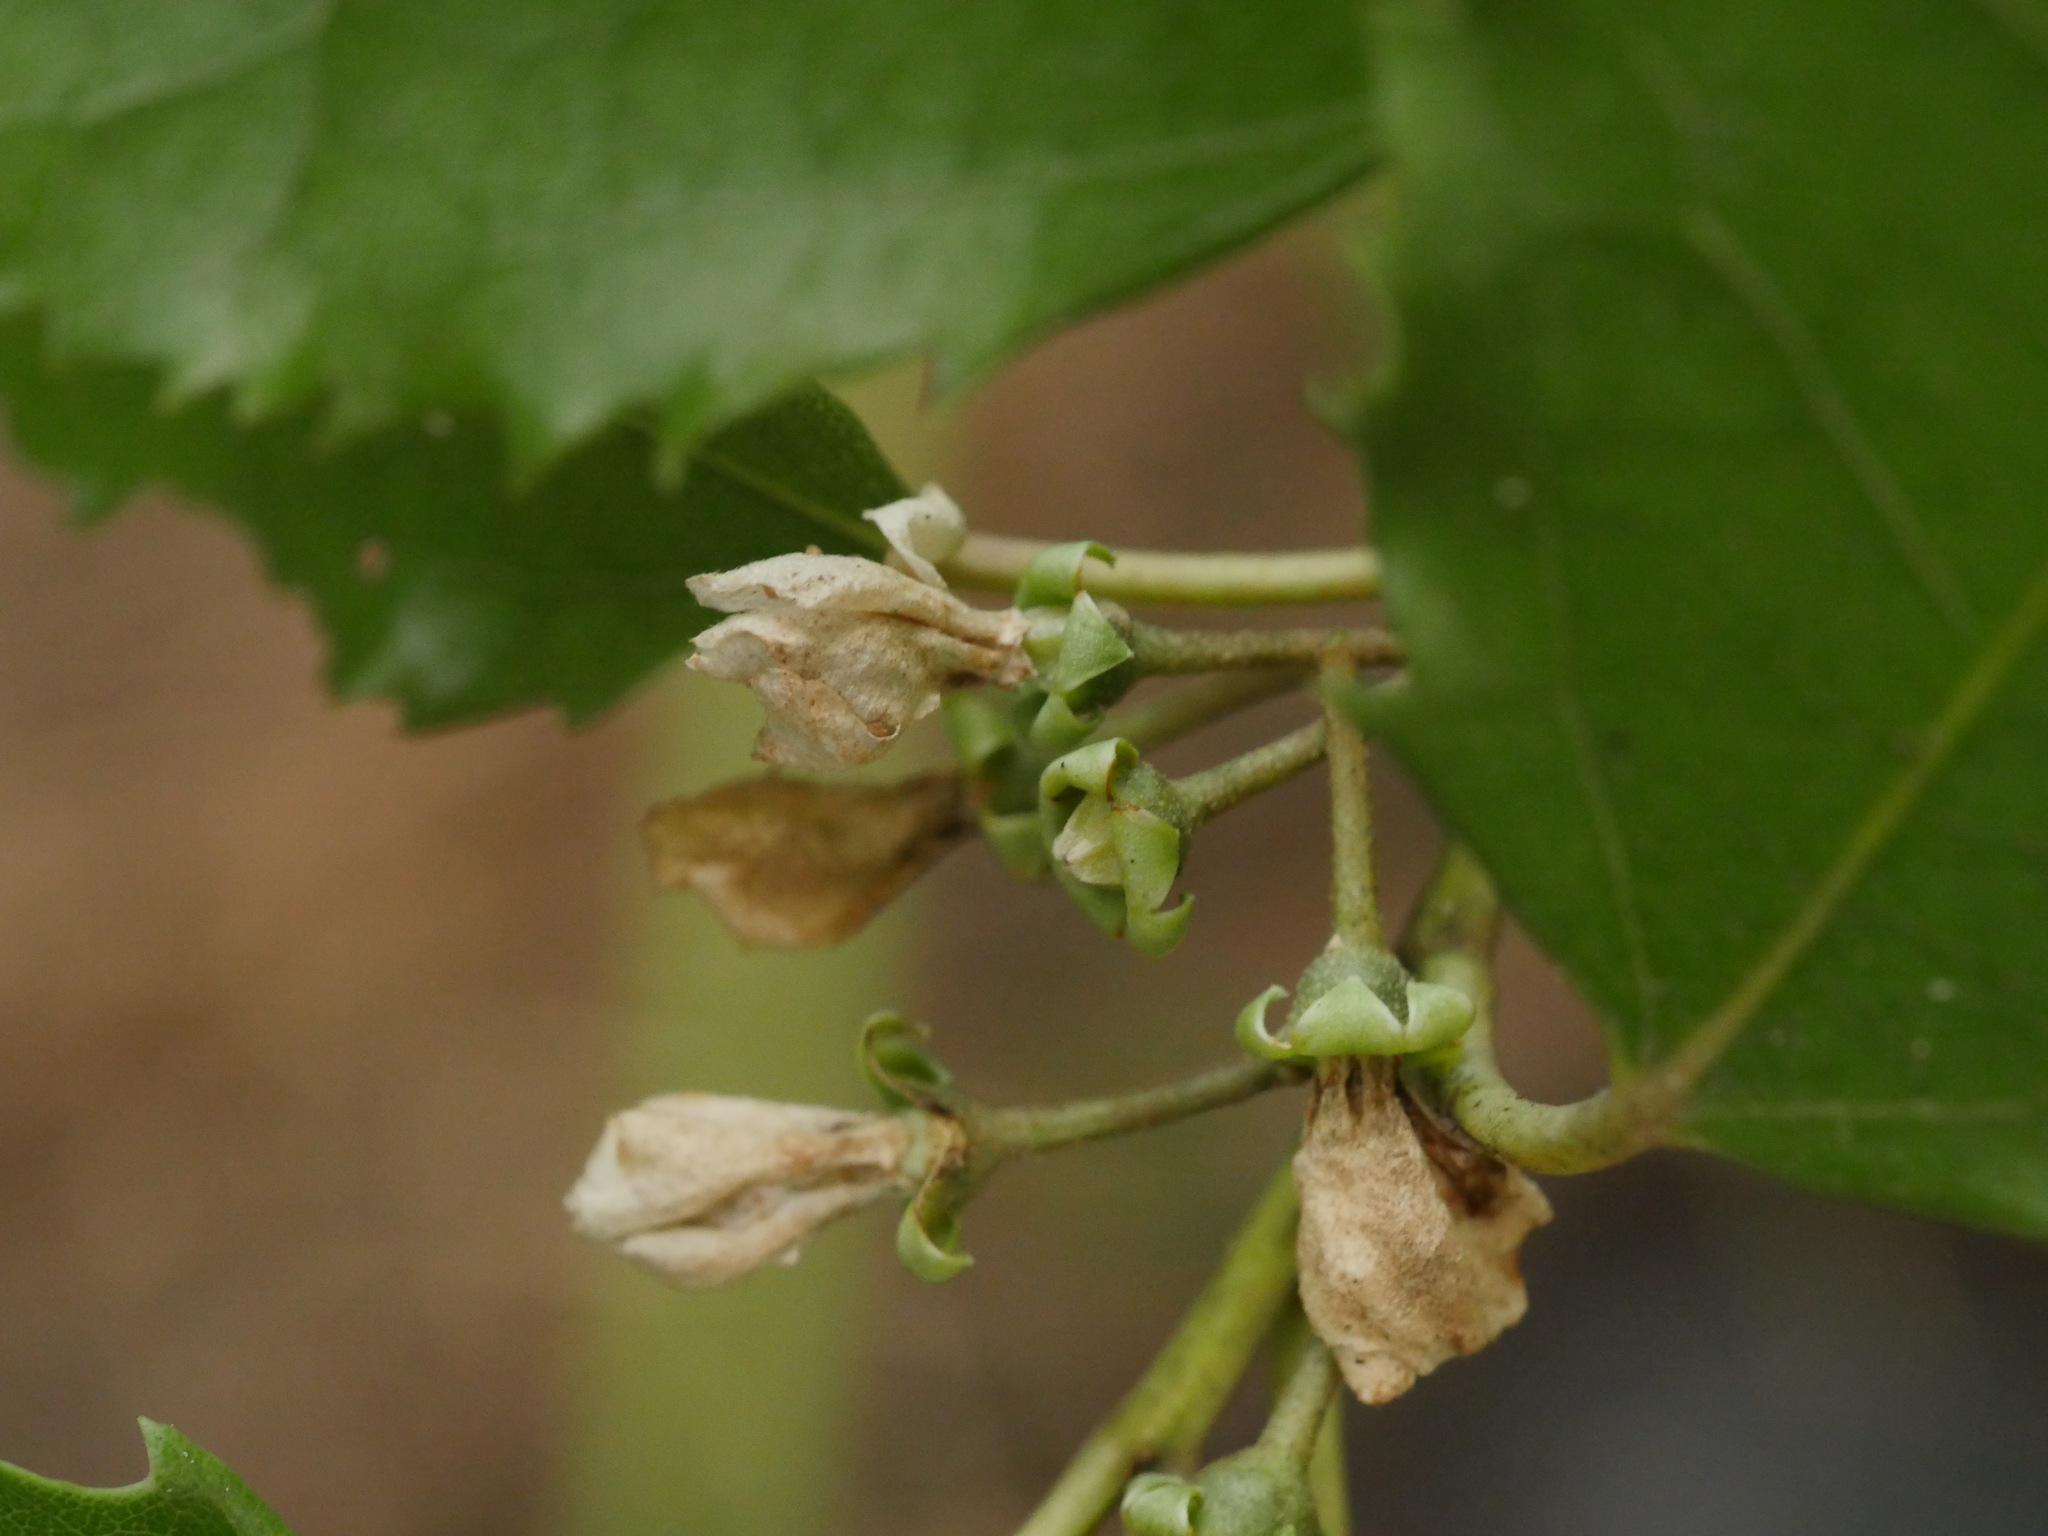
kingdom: Plantae
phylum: Tracheophyta
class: Magnoliopsida
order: Malvales
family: Malvaceae
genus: Hoheria
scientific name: Hoheria populnea
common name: Lacebark
